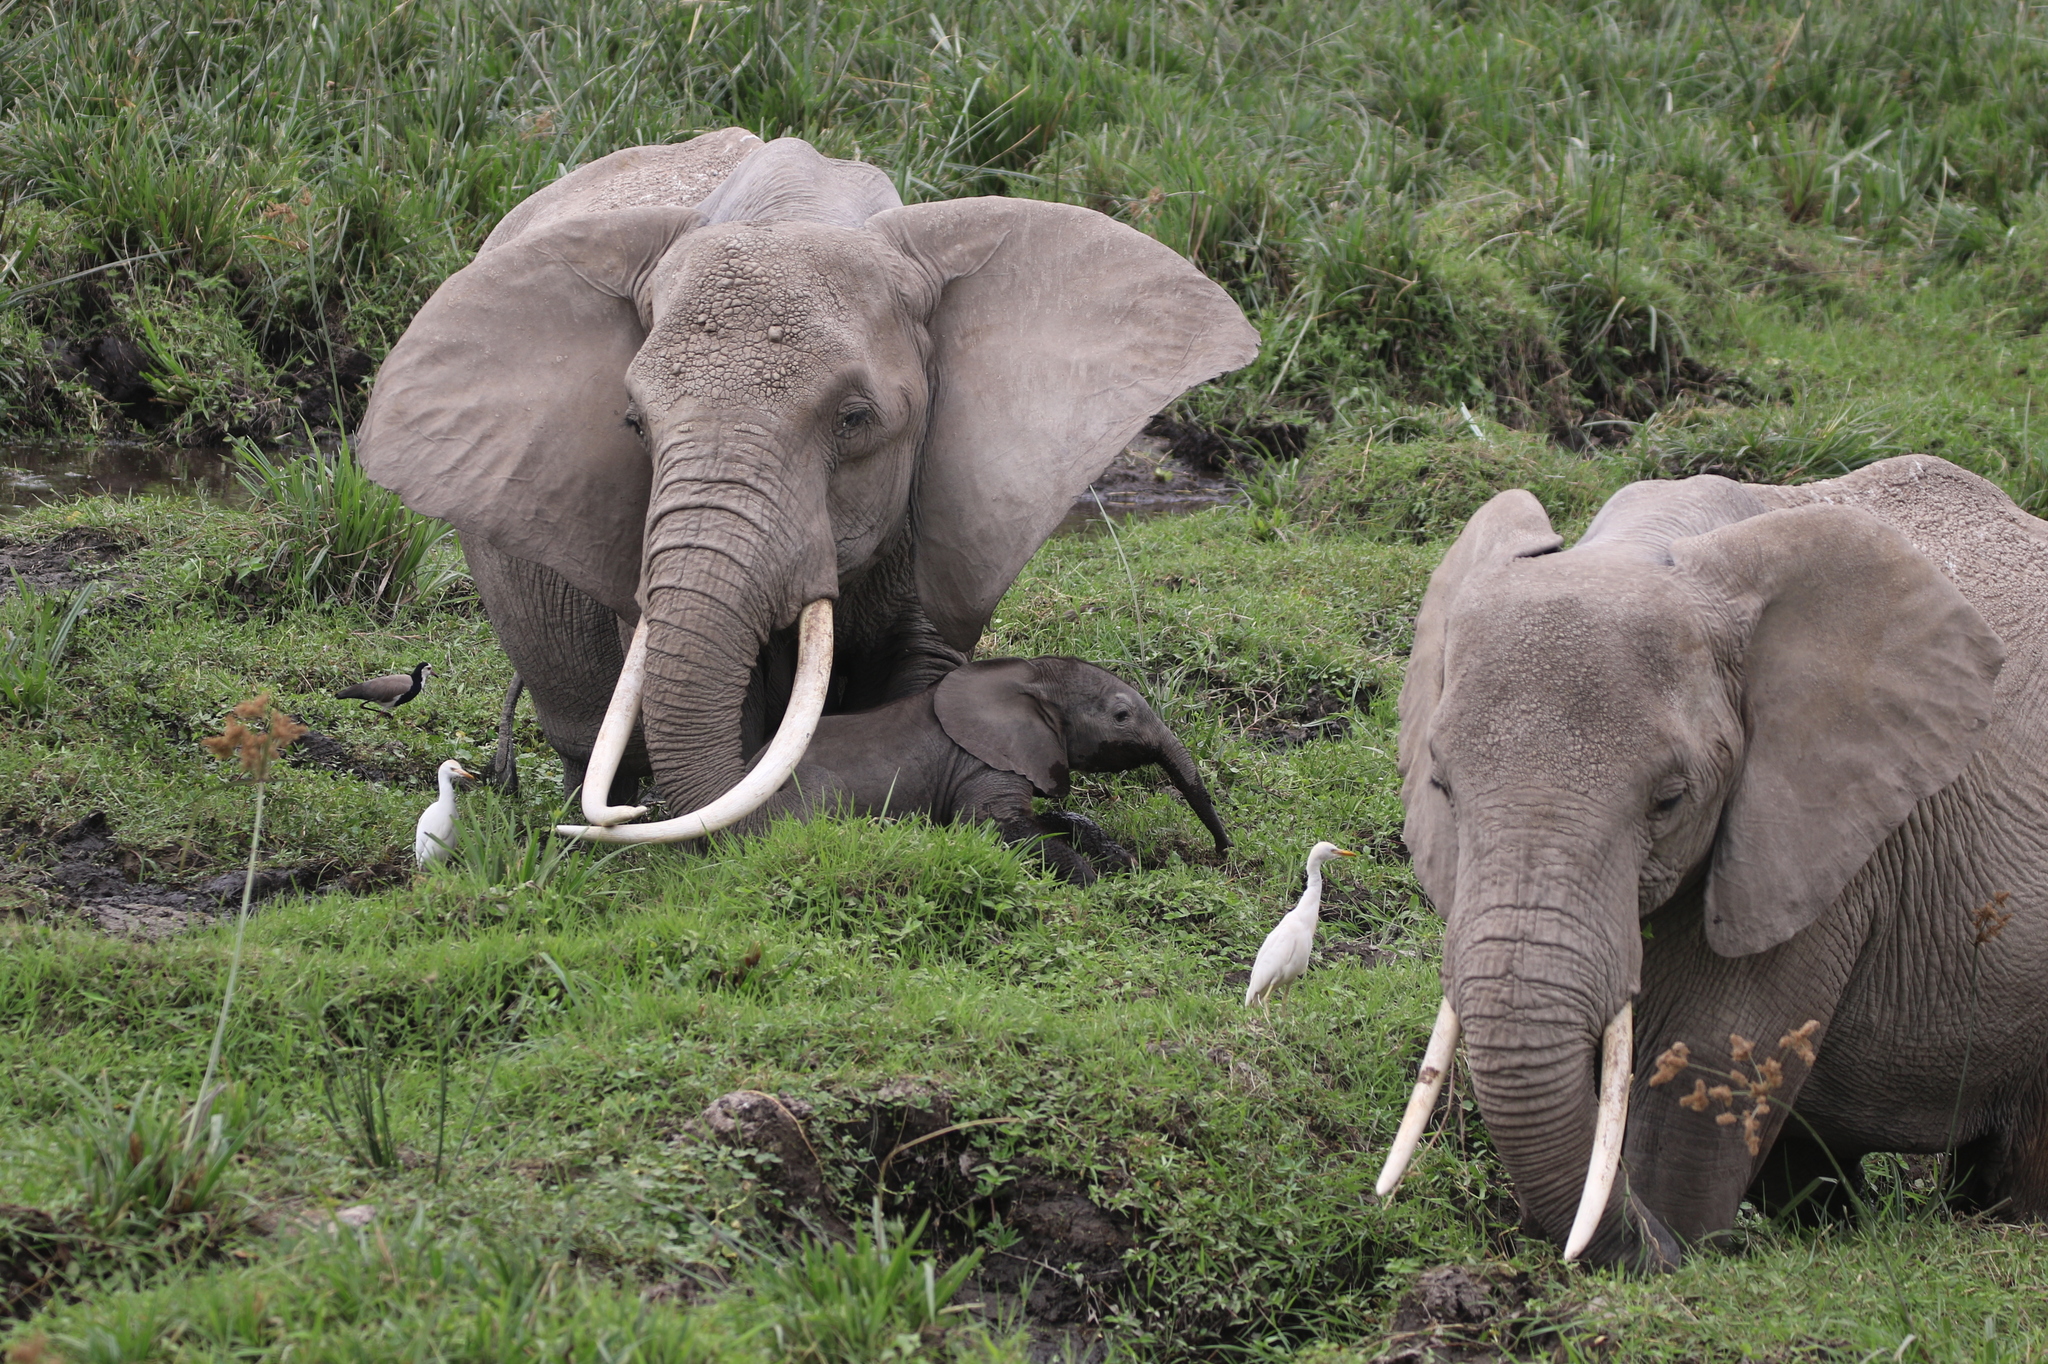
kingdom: Animalia
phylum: Chordata
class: Mammalia
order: Proboscidea
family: Elephantidae
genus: Loxodonta
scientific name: Loxodonta africana
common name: African elephant
